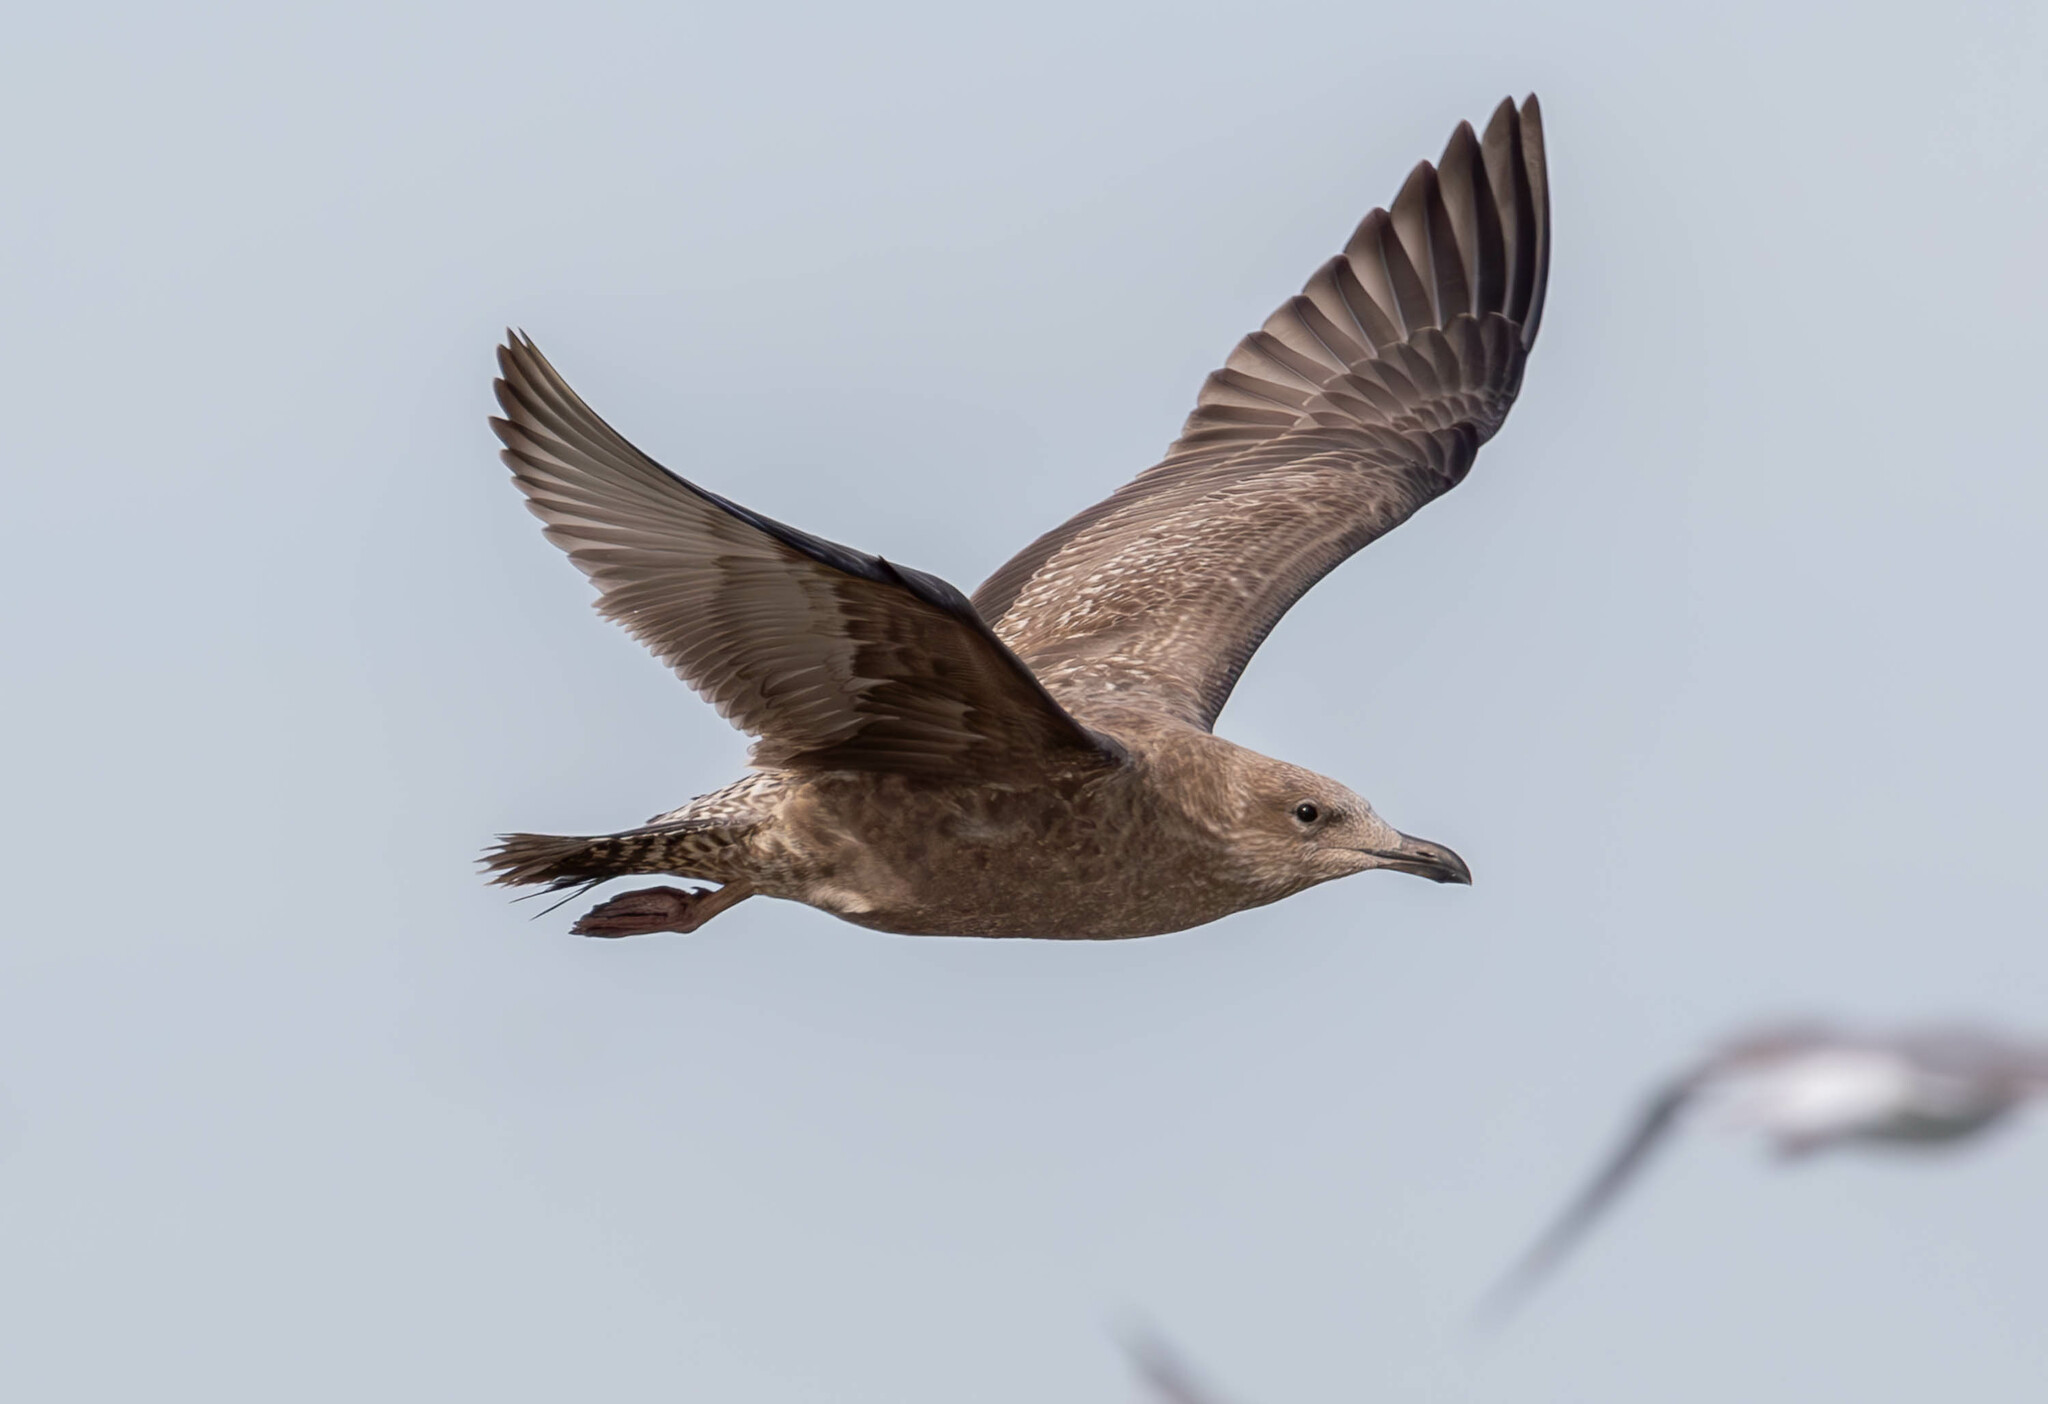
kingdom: Animalia
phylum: Chordata
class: Aves
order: Charadriiformes
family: Laridae
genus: Larus
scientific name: Larus argentatus
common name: Herring gull
